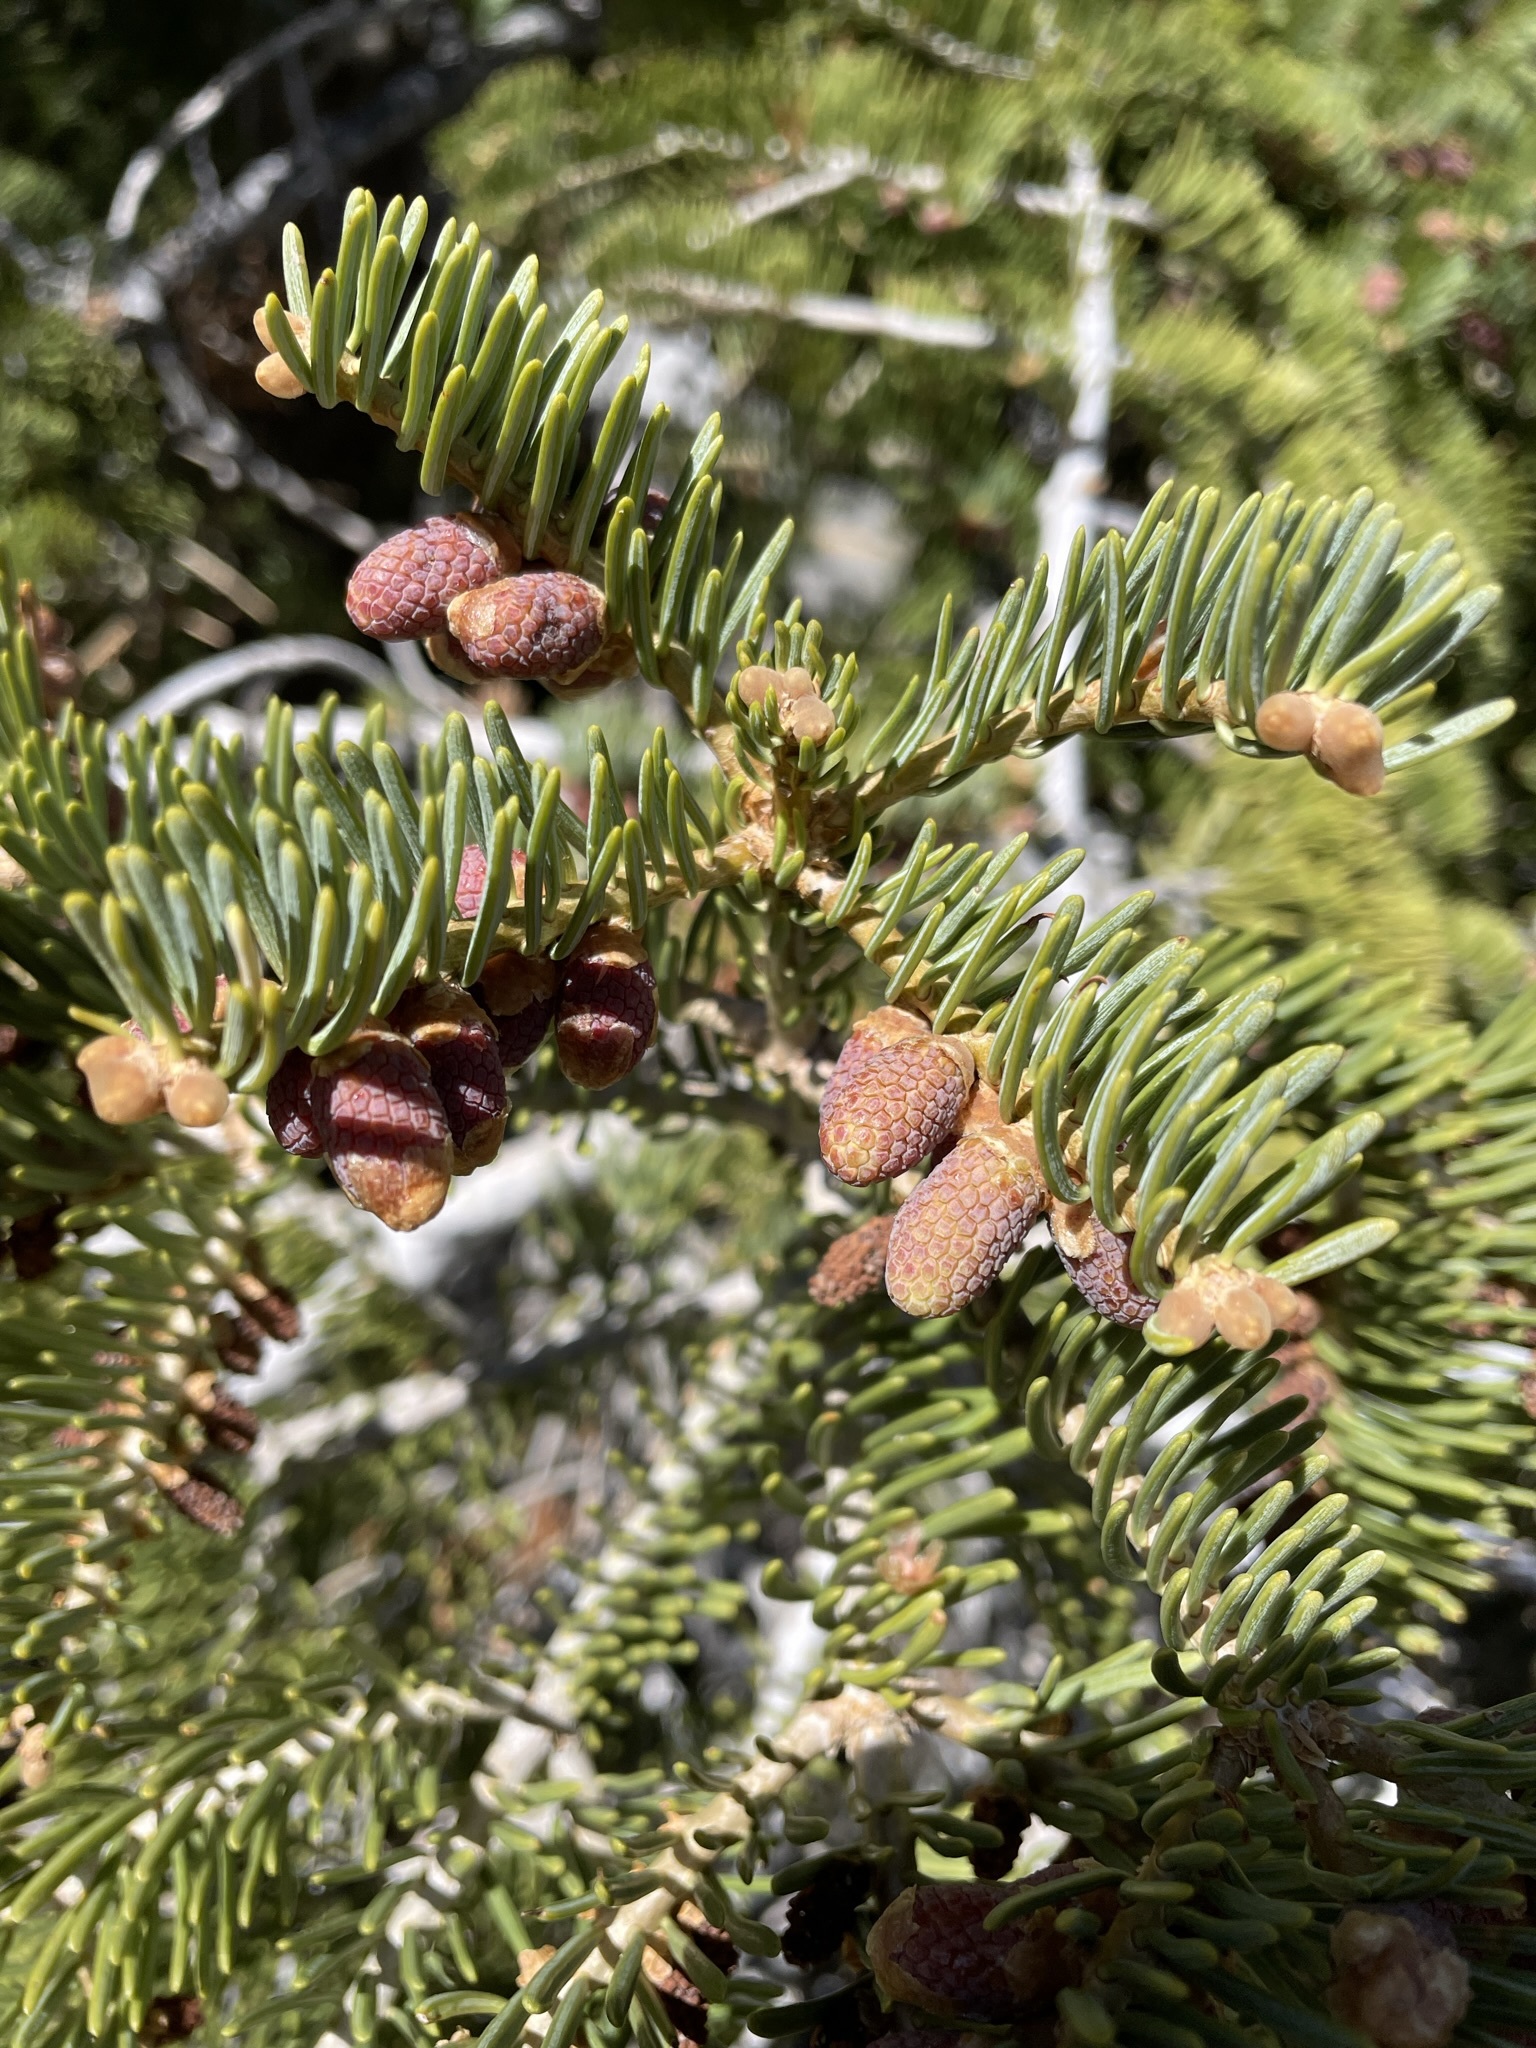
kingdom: Plantae
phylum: Tracheophyta
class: Pinopsida
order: Pinales
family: Pinaceae
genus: Abies
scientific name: Abies concolor
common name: Colorado fir
